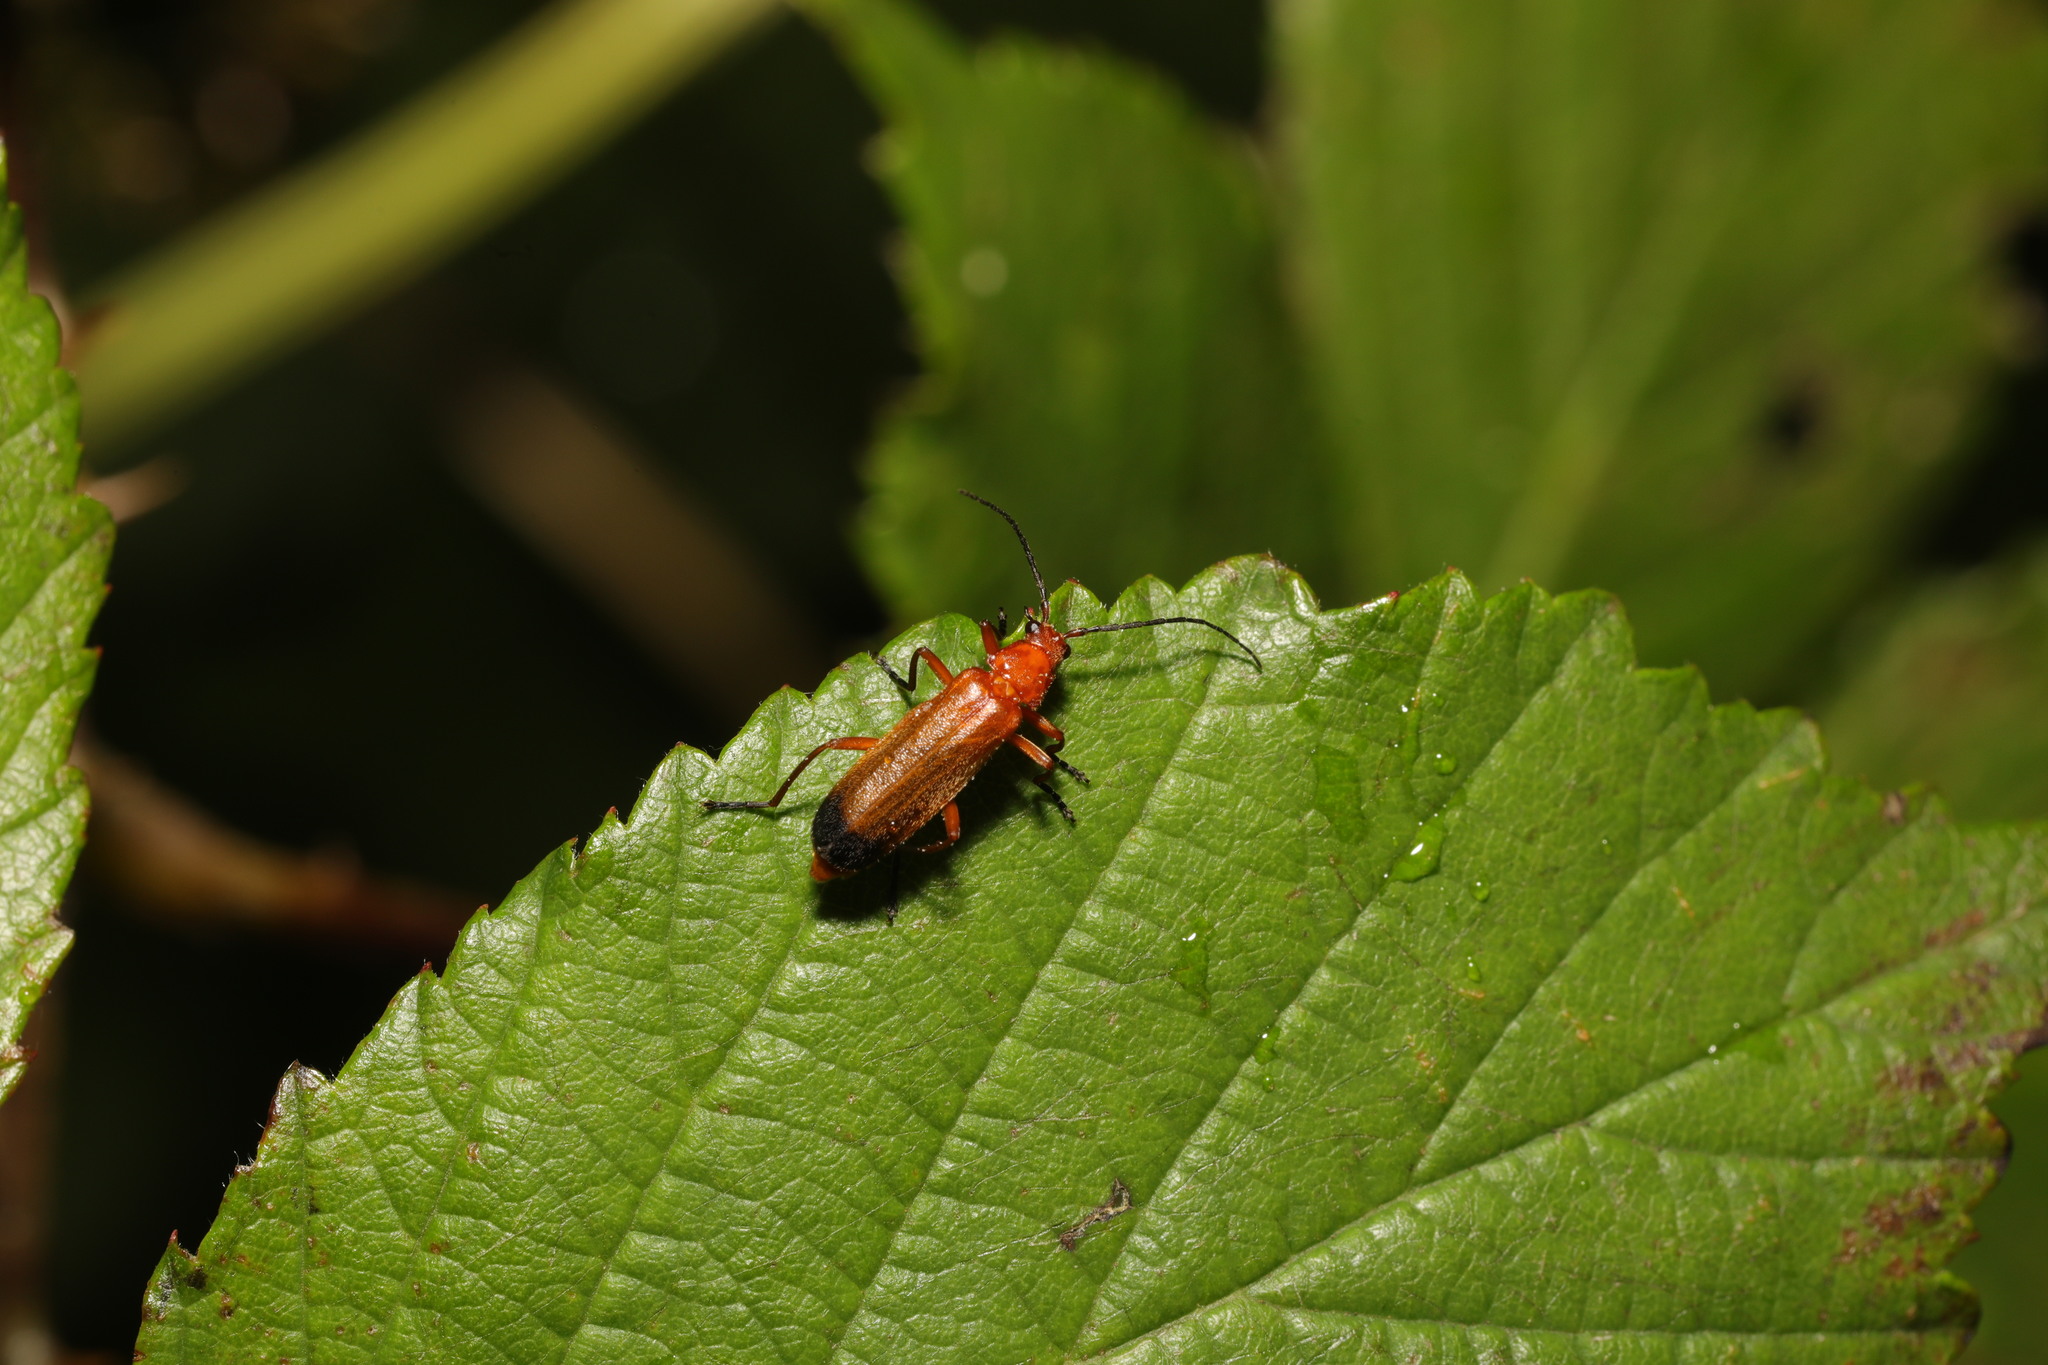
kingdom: Animalia
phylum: Arthropoda
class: Insecta
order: Coleoptera
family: Cantharidae
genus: Rhagonycha
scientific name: Rhagonycha fulva
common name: Common red soldier beetle
